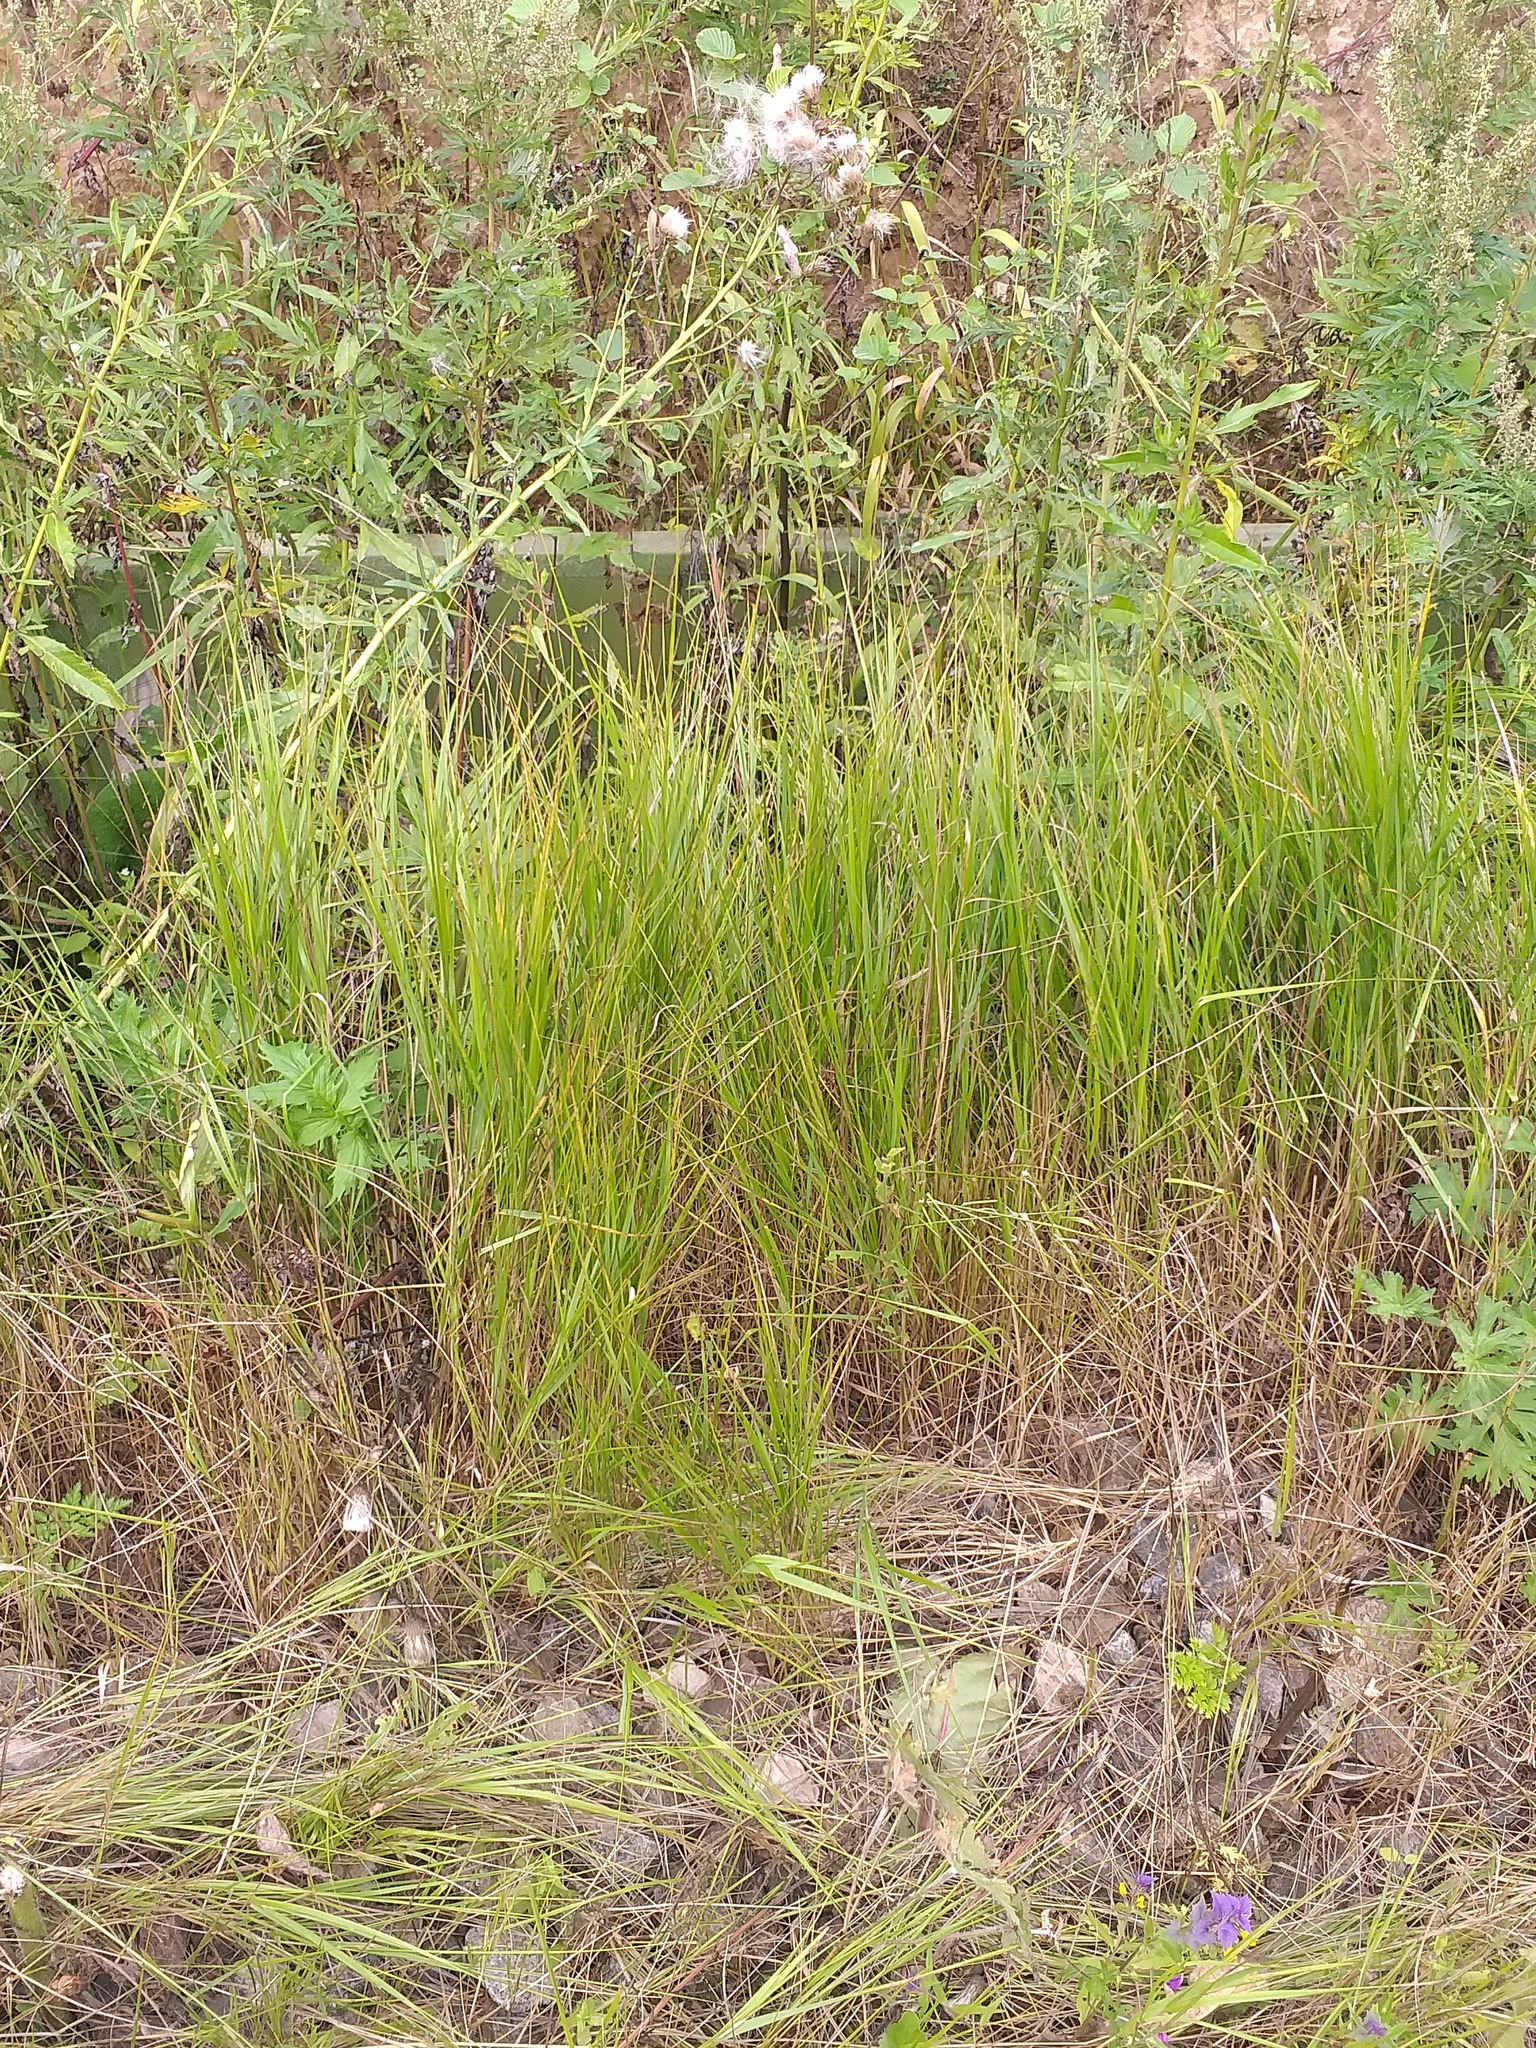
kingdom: Plantae
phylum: Tracheophyta
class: Liliopsida
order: Poales
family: Poaceae
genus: Calamagrostis
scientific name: Calamagrostis canescens
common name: Purple small-reed
